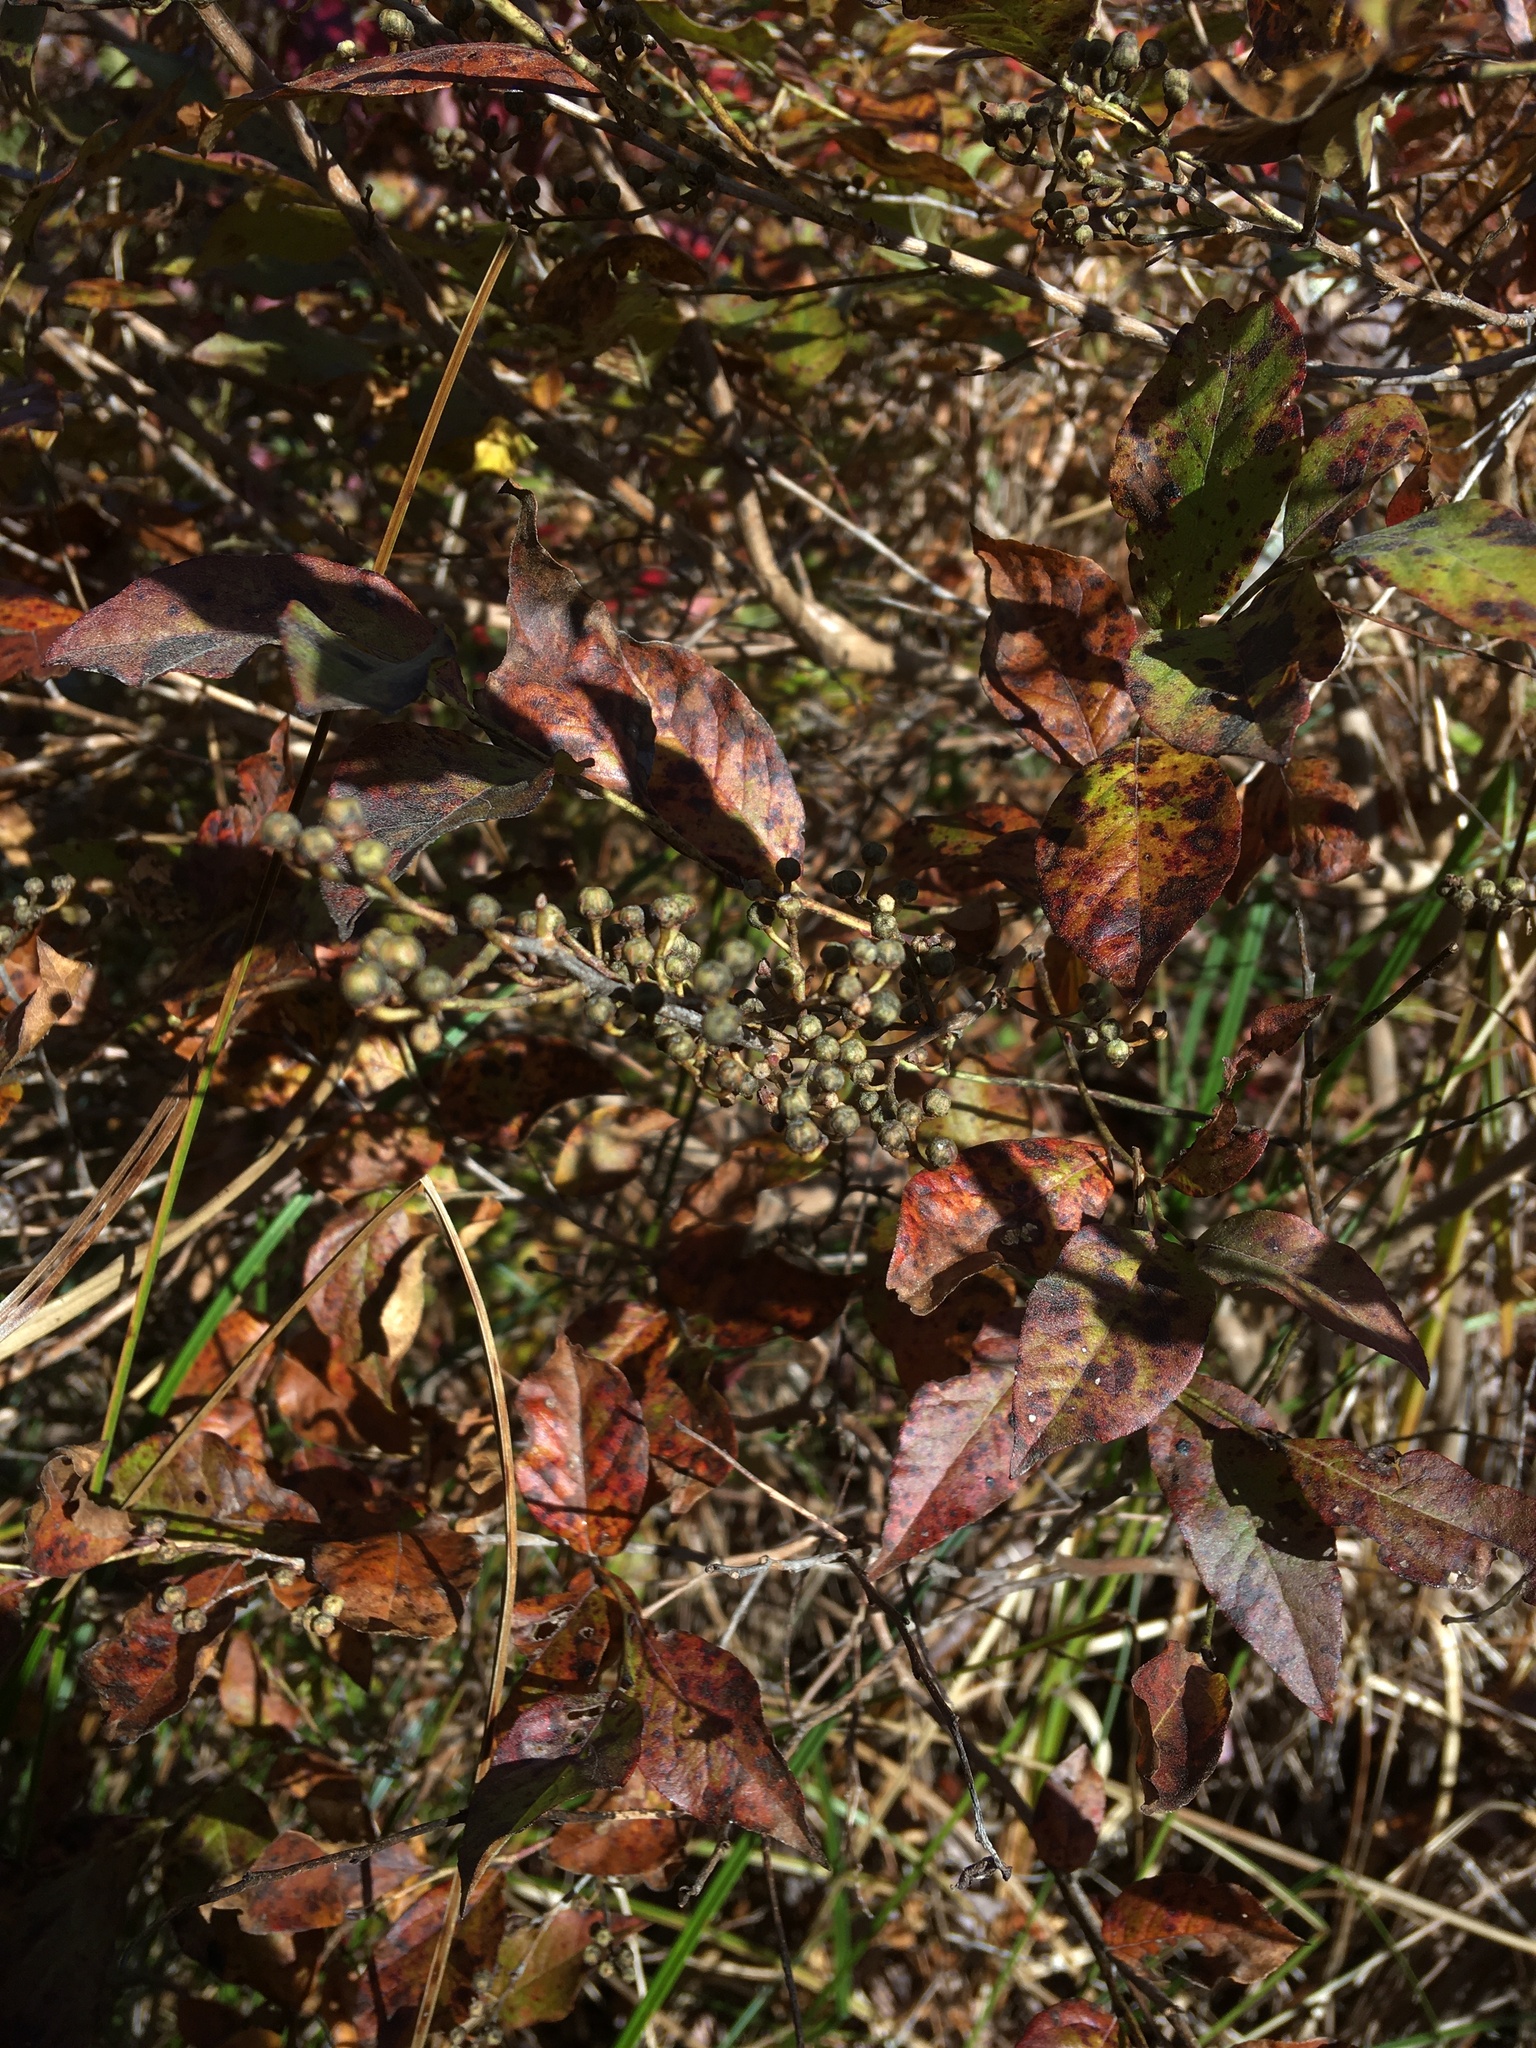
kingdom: Plantae
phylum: Tracheophyta
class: Magnoliopsida
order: Ericales
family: Ericaceae
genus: Lyonia
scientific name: Lyonia ligustrina
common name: Maleberry
